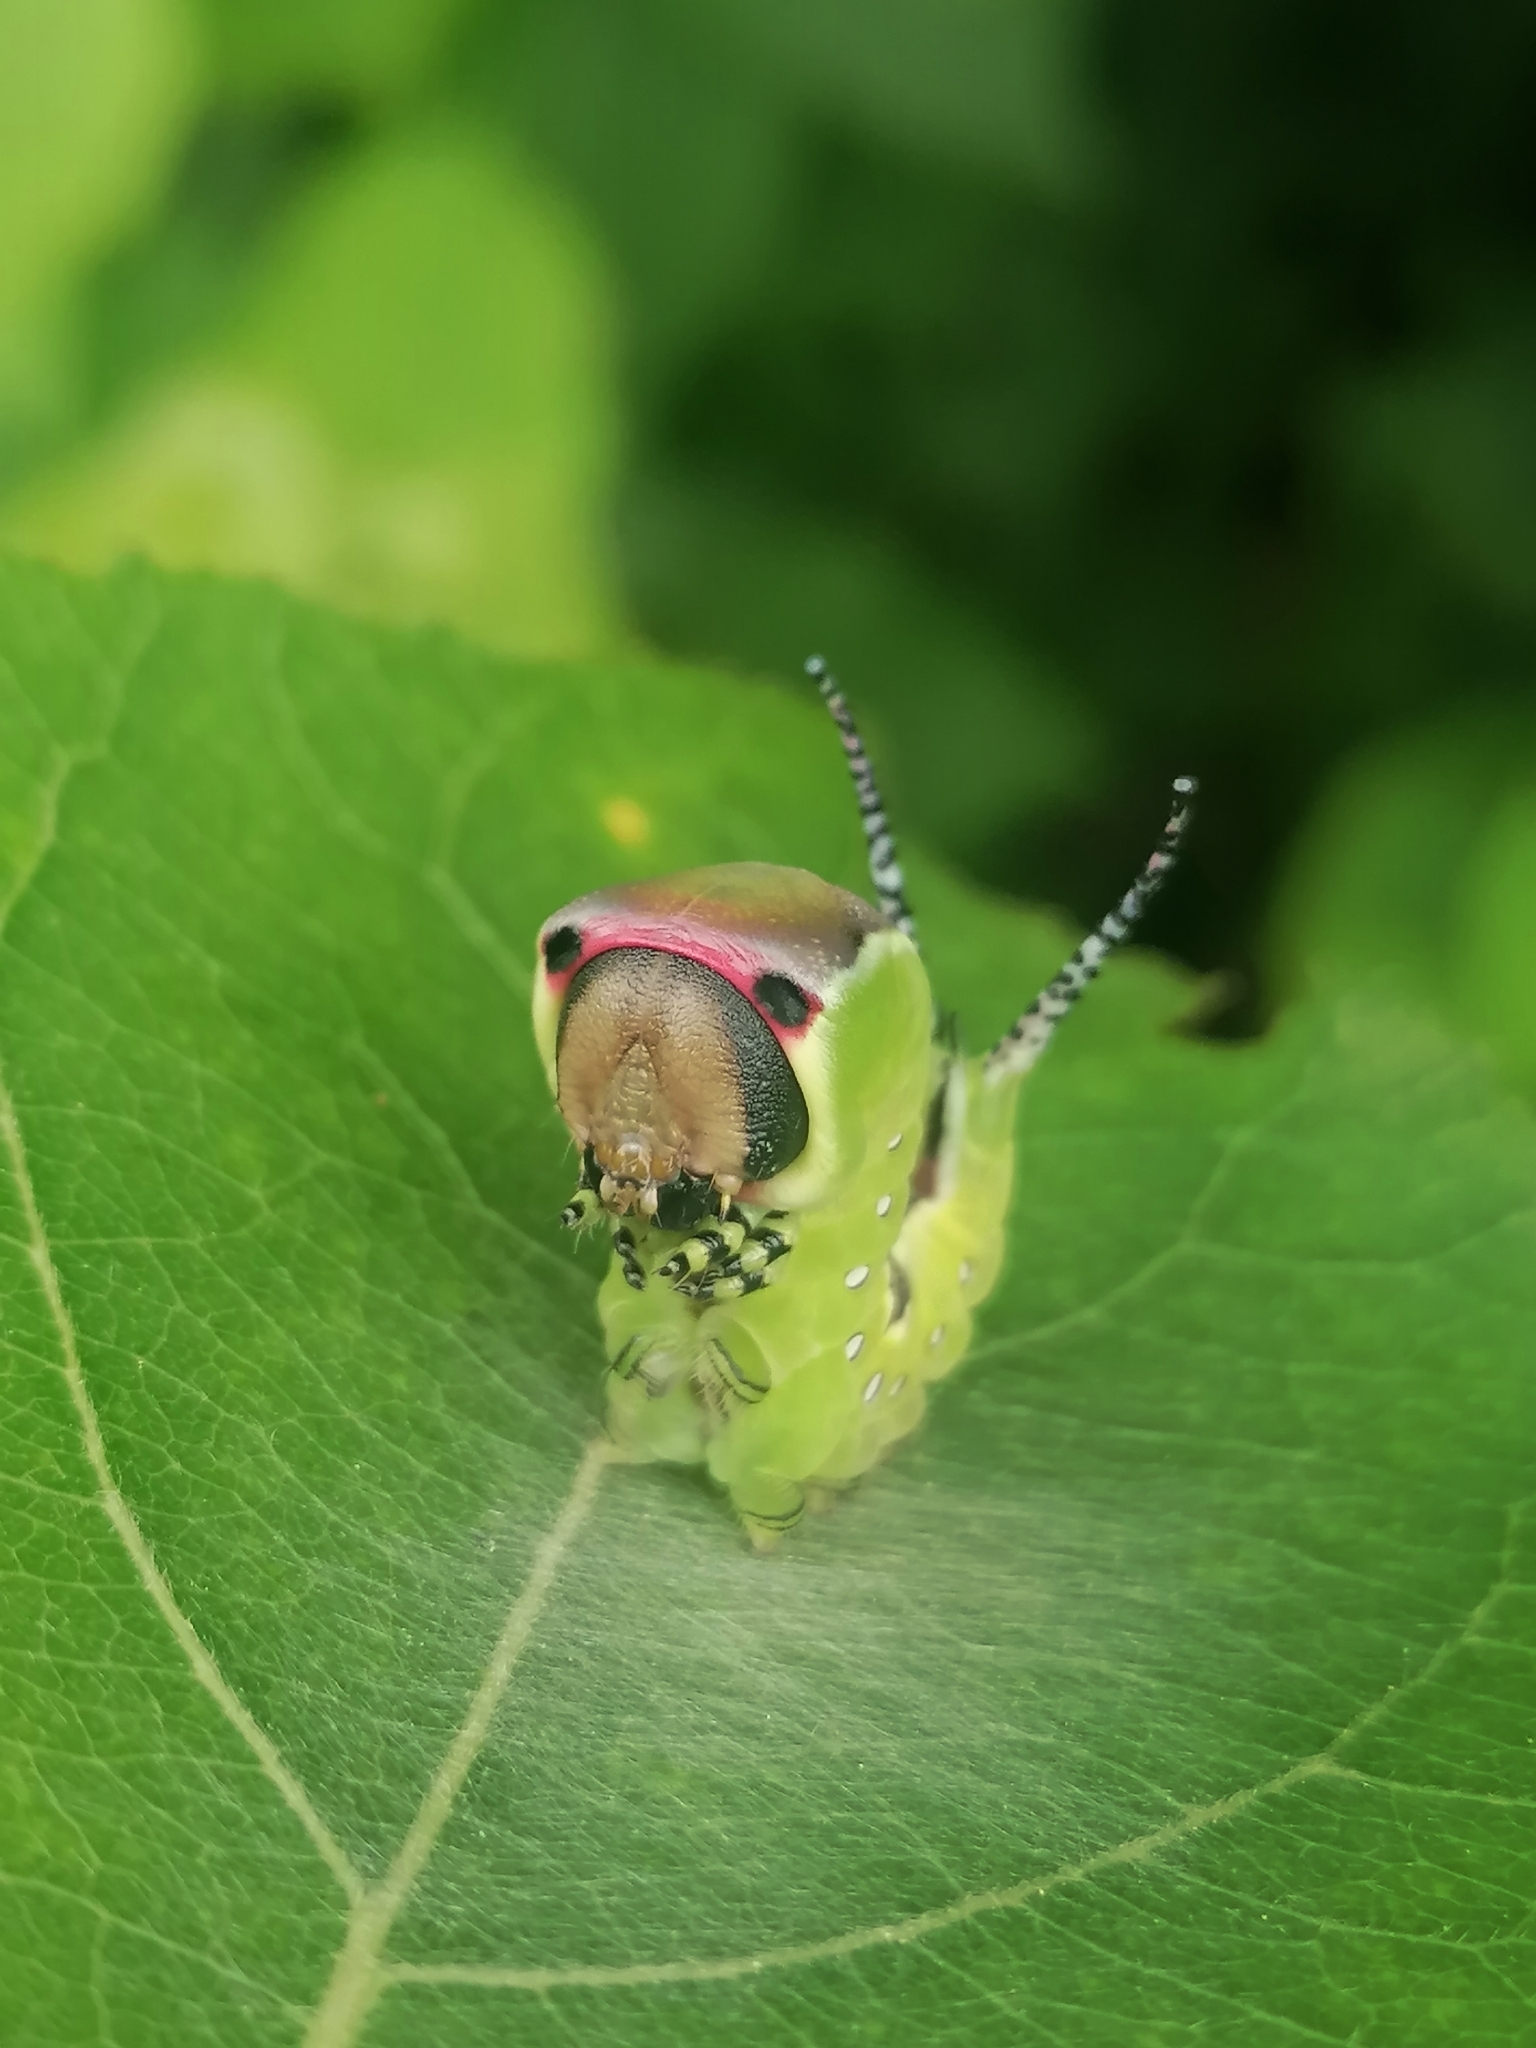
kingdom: Animalia
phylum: Arthropoda
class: Insecta
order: Lepidoptera
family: Notodontidae
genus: Cerura
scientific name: Cerura vinula
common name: Puss moth
